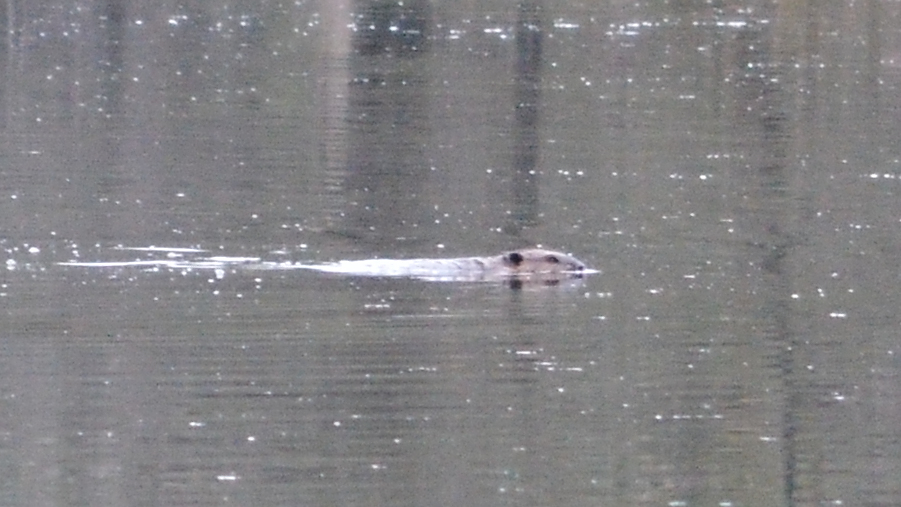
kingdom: Animalia
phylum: Chordata
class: Mammalia
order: Rodentia
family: Castoridae
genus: Castor
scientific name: Castor canadensis
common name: American beaver
